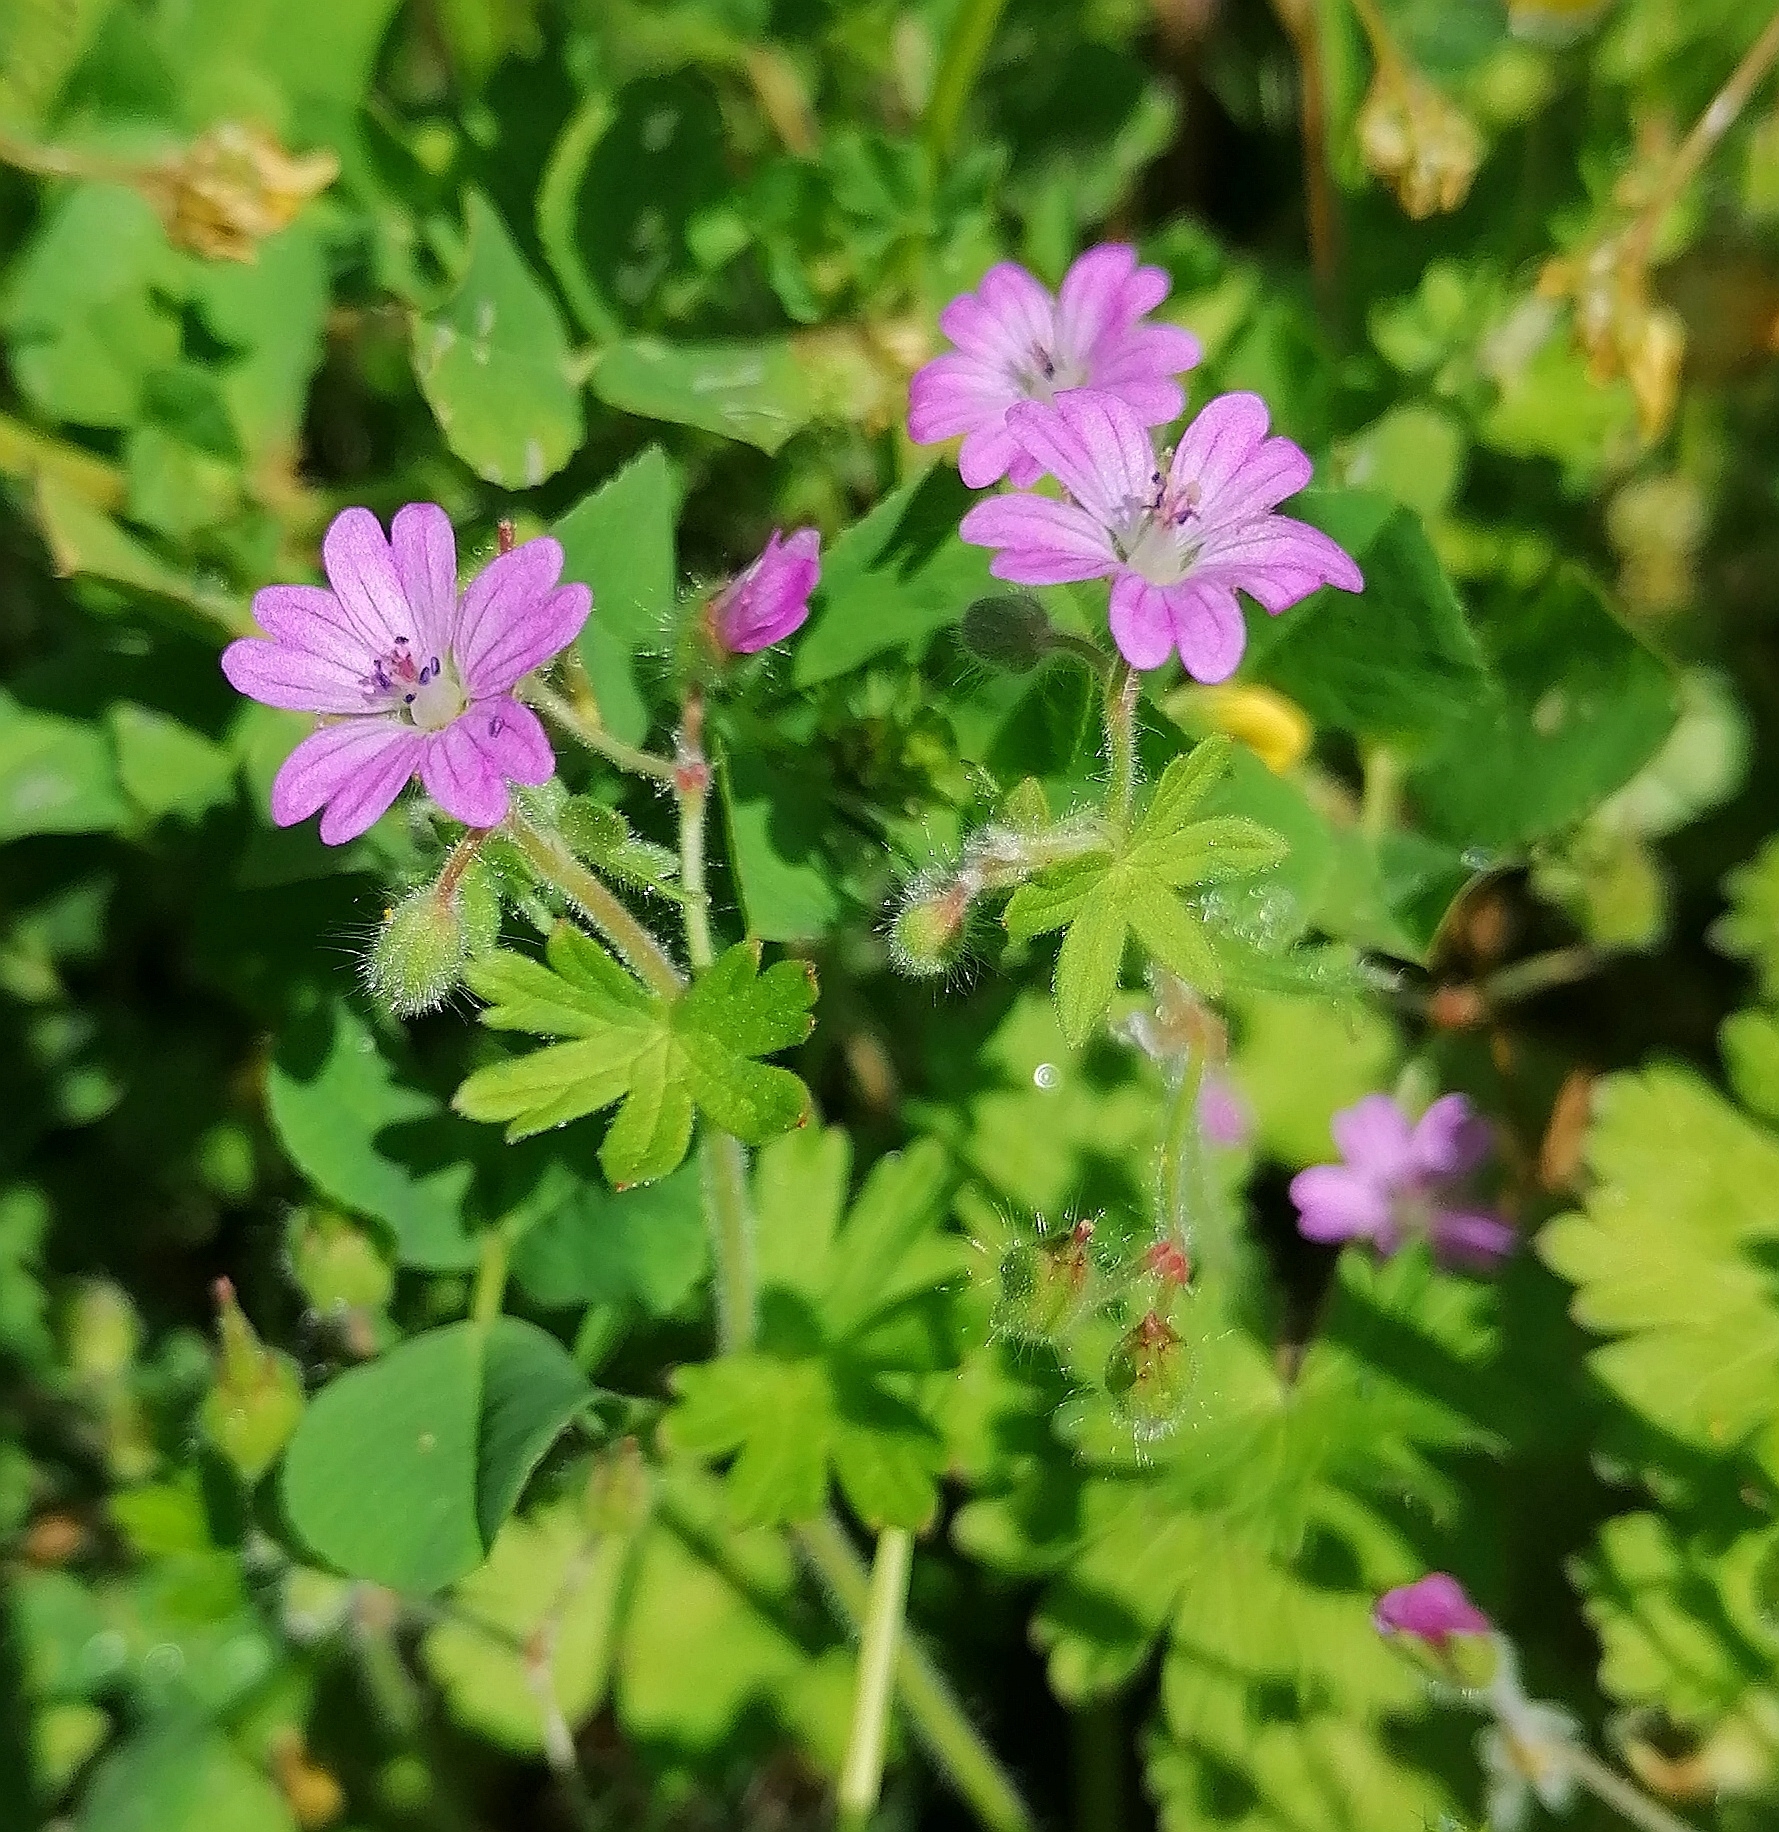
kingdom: Plantae
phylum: Tracheophyta
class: Magnoliopsida
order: Geraniales
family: Geraniaceae
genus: Geranium
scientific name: Geranium molle
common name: Dove's-foot crane's-bill
